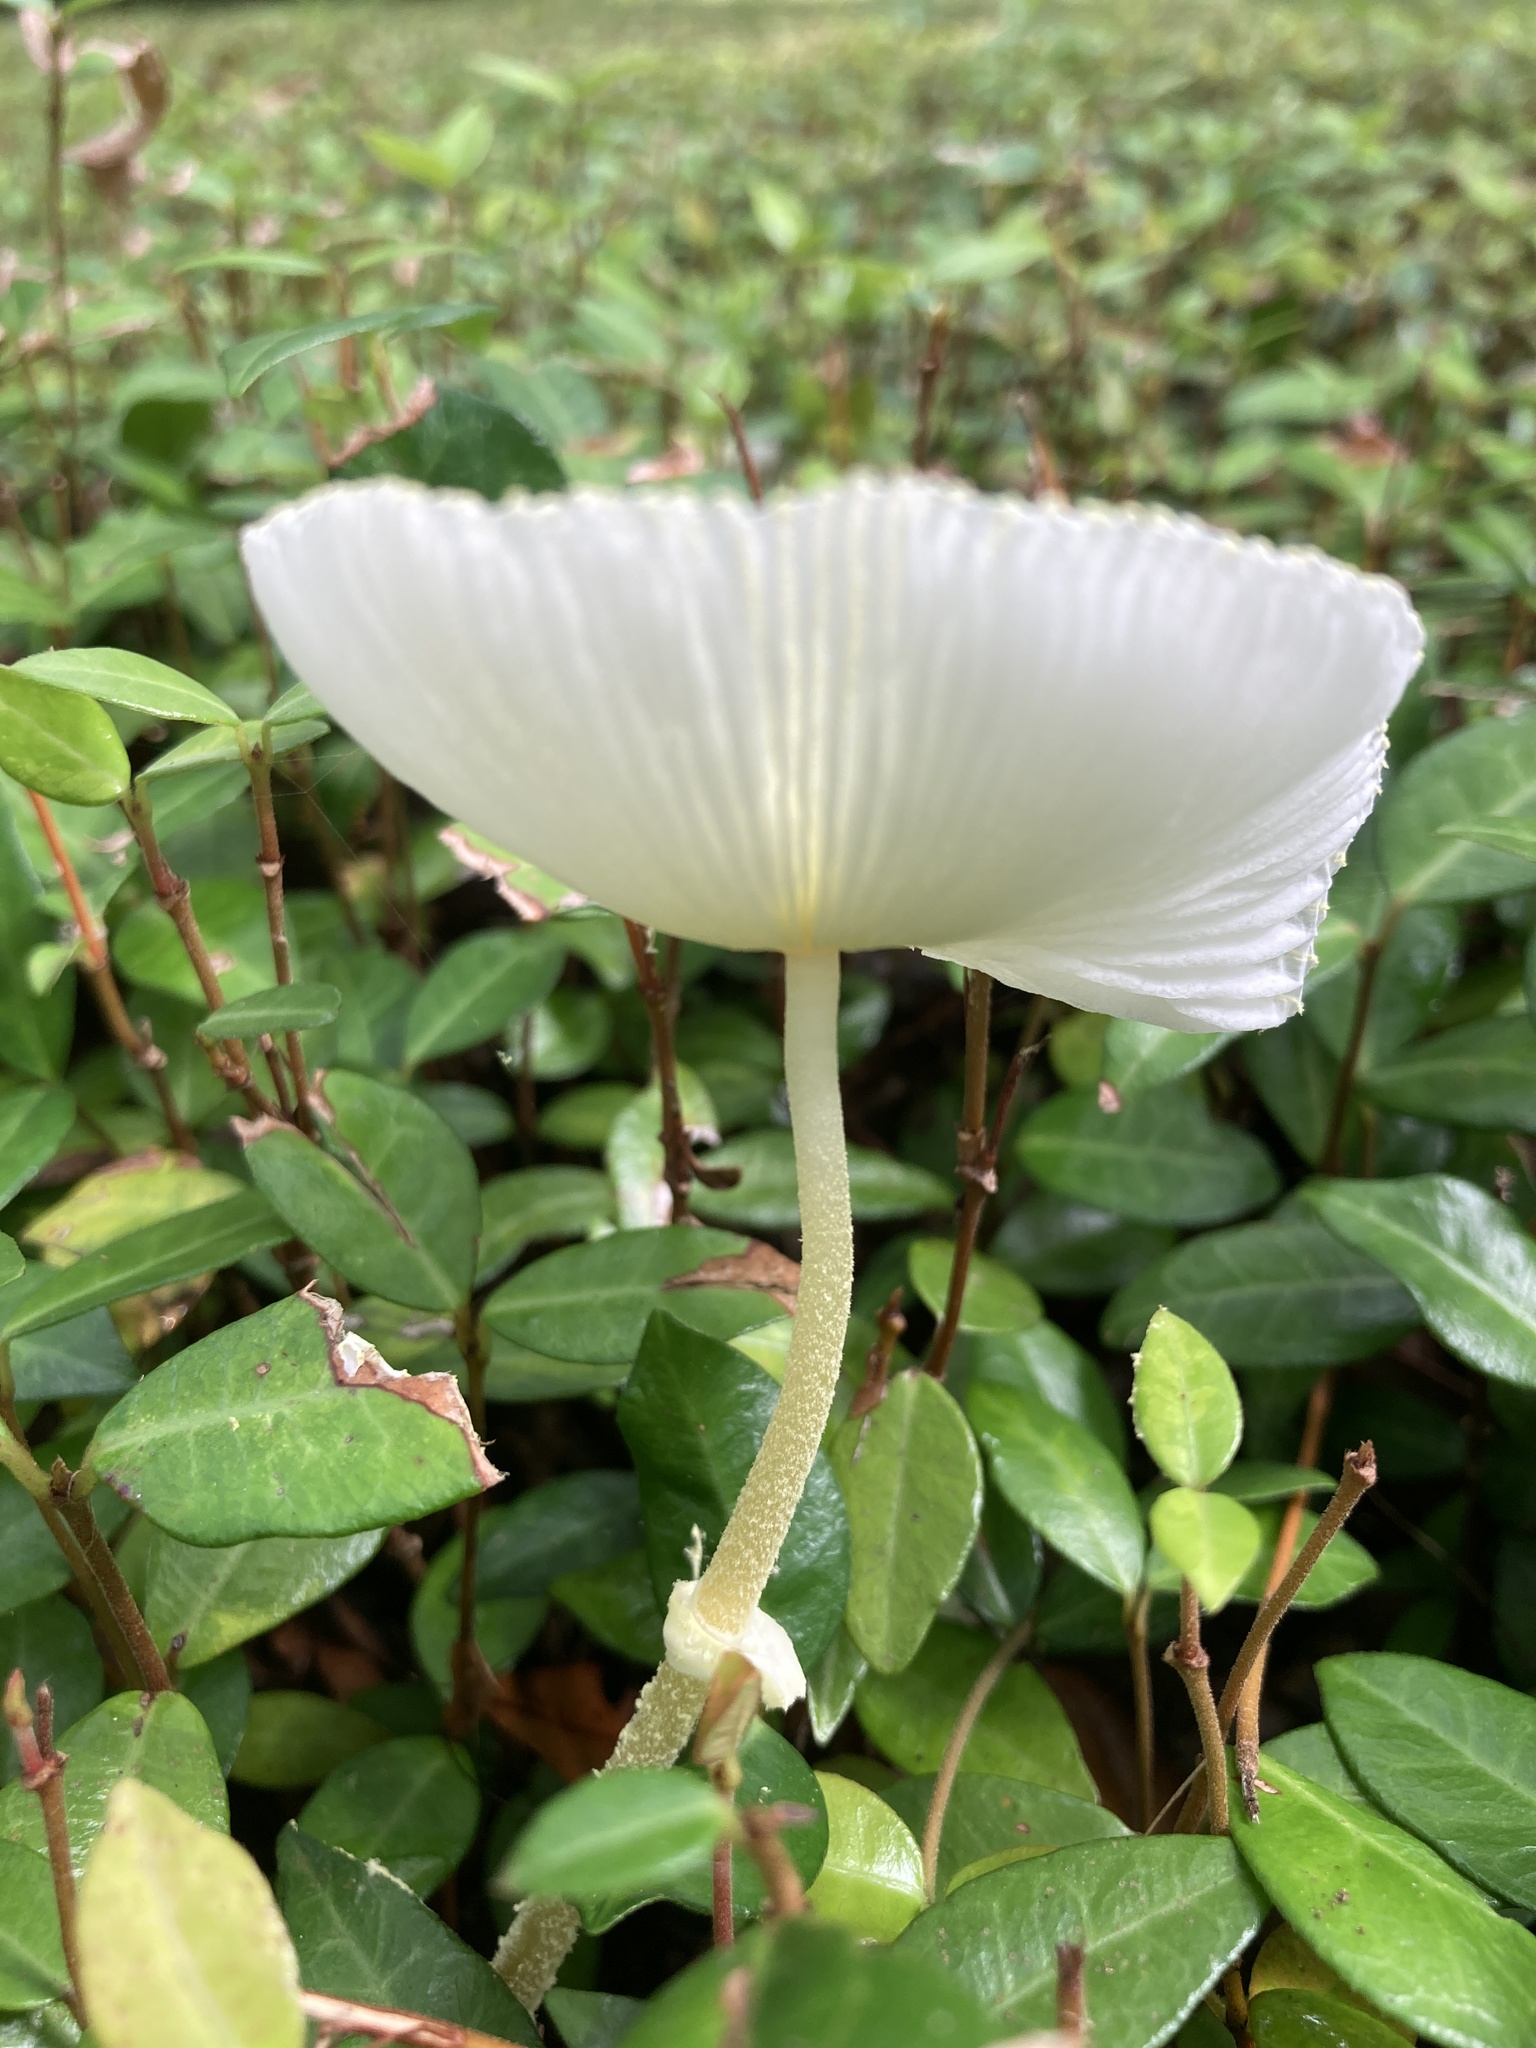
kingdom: Fungi
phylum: Basidiomycota
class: Agaricomycetes
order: Agaricales
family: Agaricaceae
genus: Leucocoprinus
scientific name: Leucocoprinus fragilissimus
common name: Fragile dapperling
